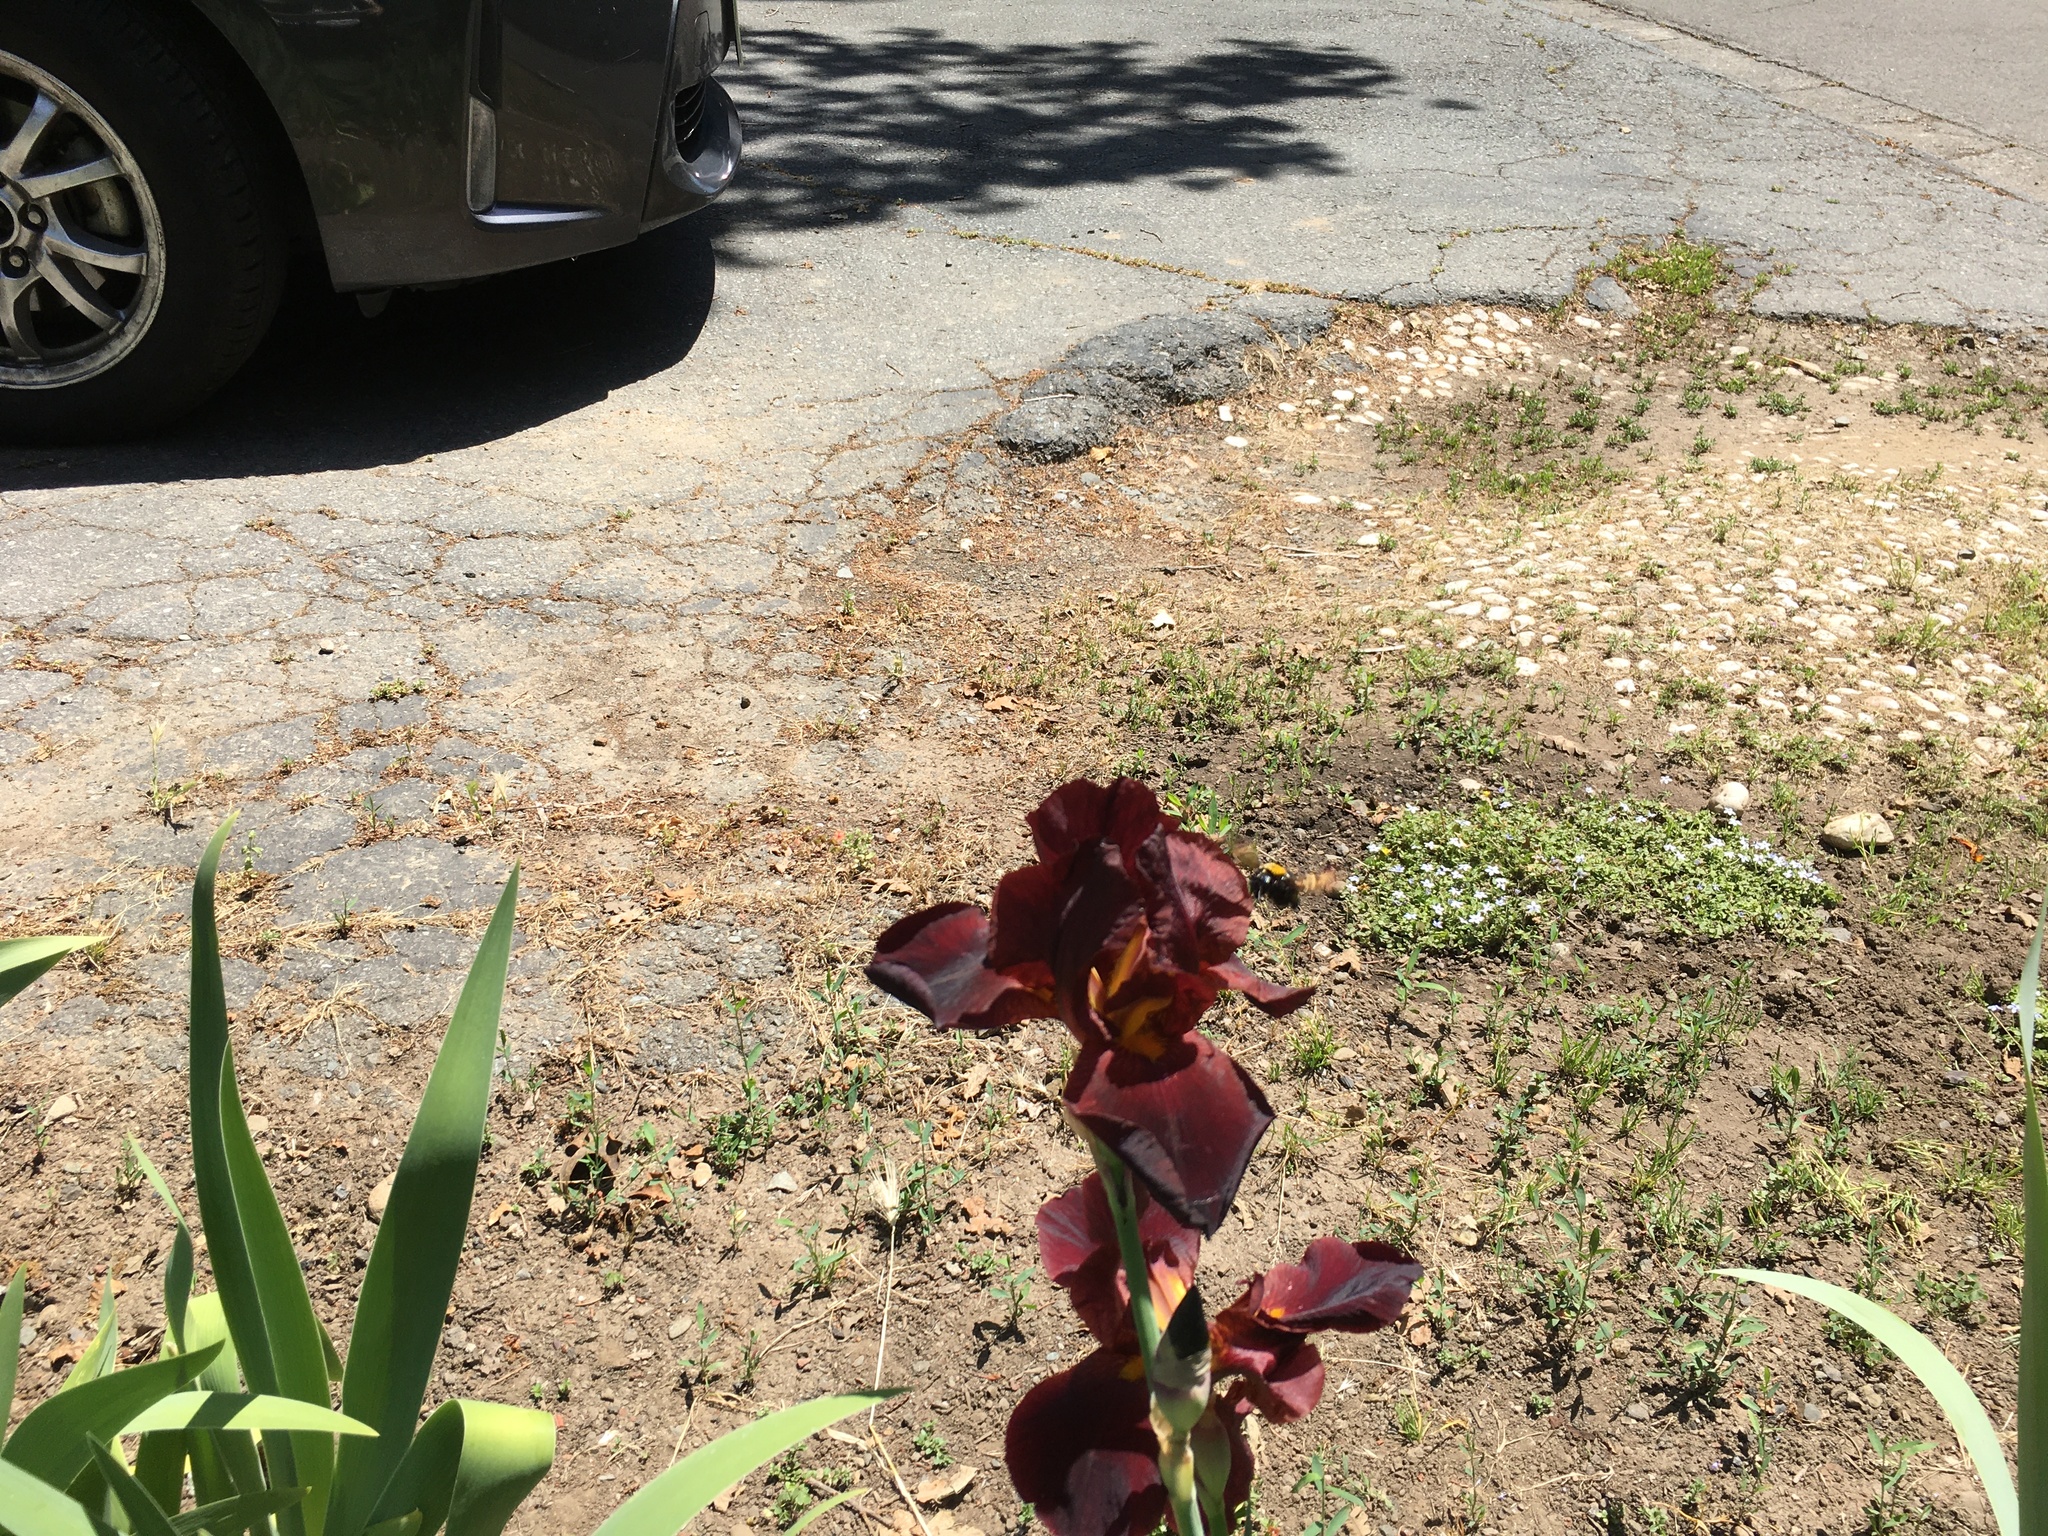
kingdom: Animalia
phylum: Arthropoda
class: Insecta
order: Hymenoptera
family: Apidae
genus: Xylocopa
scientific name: Xylocopa sonorina
